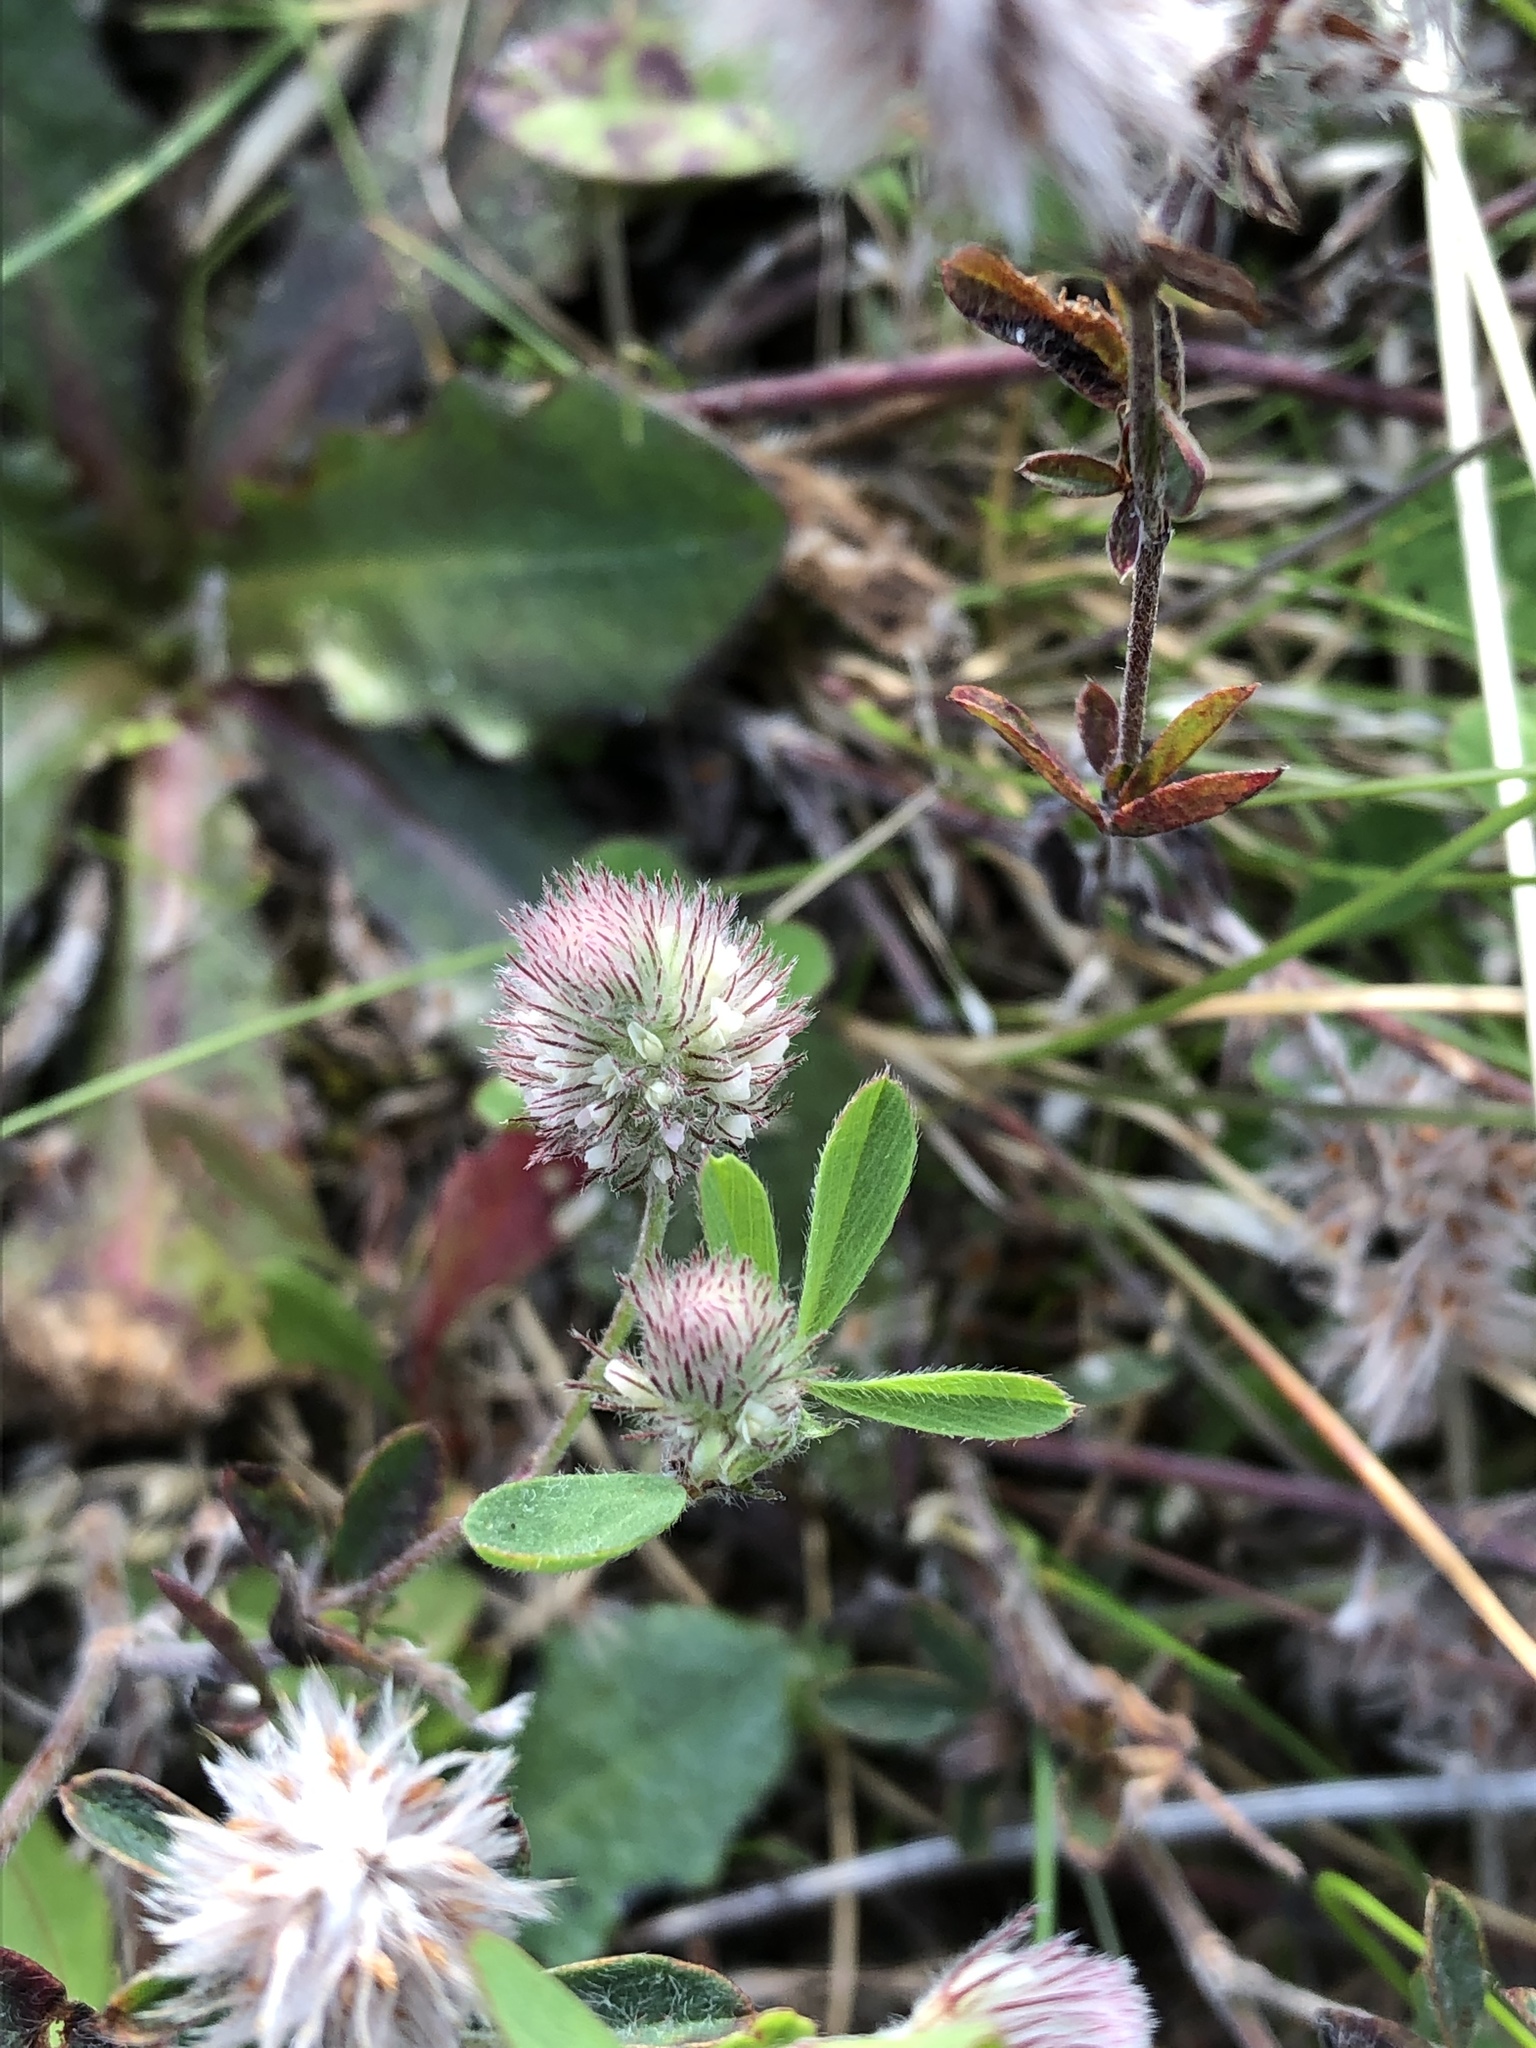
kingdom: Plantae
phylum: Tracheophyta
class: Magnoliopsida
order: Fabales
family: Fabaceae
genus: Trifolium
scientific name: Trifolium arvense
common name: Hare's-foot clover
